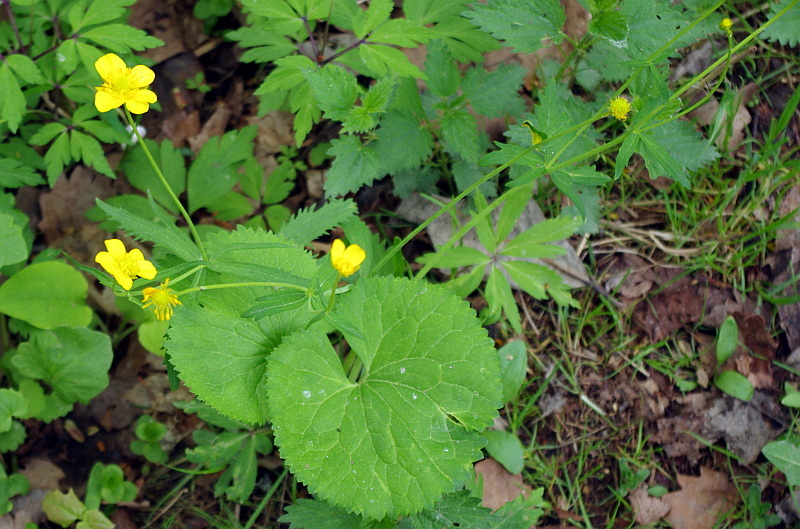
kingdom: Plantae
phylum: Tracheophyta
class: Magnoliopsida
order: Ranunculales
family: Ranunculaceae
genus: Ranunculus
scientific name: Ranunculus cassubicus
